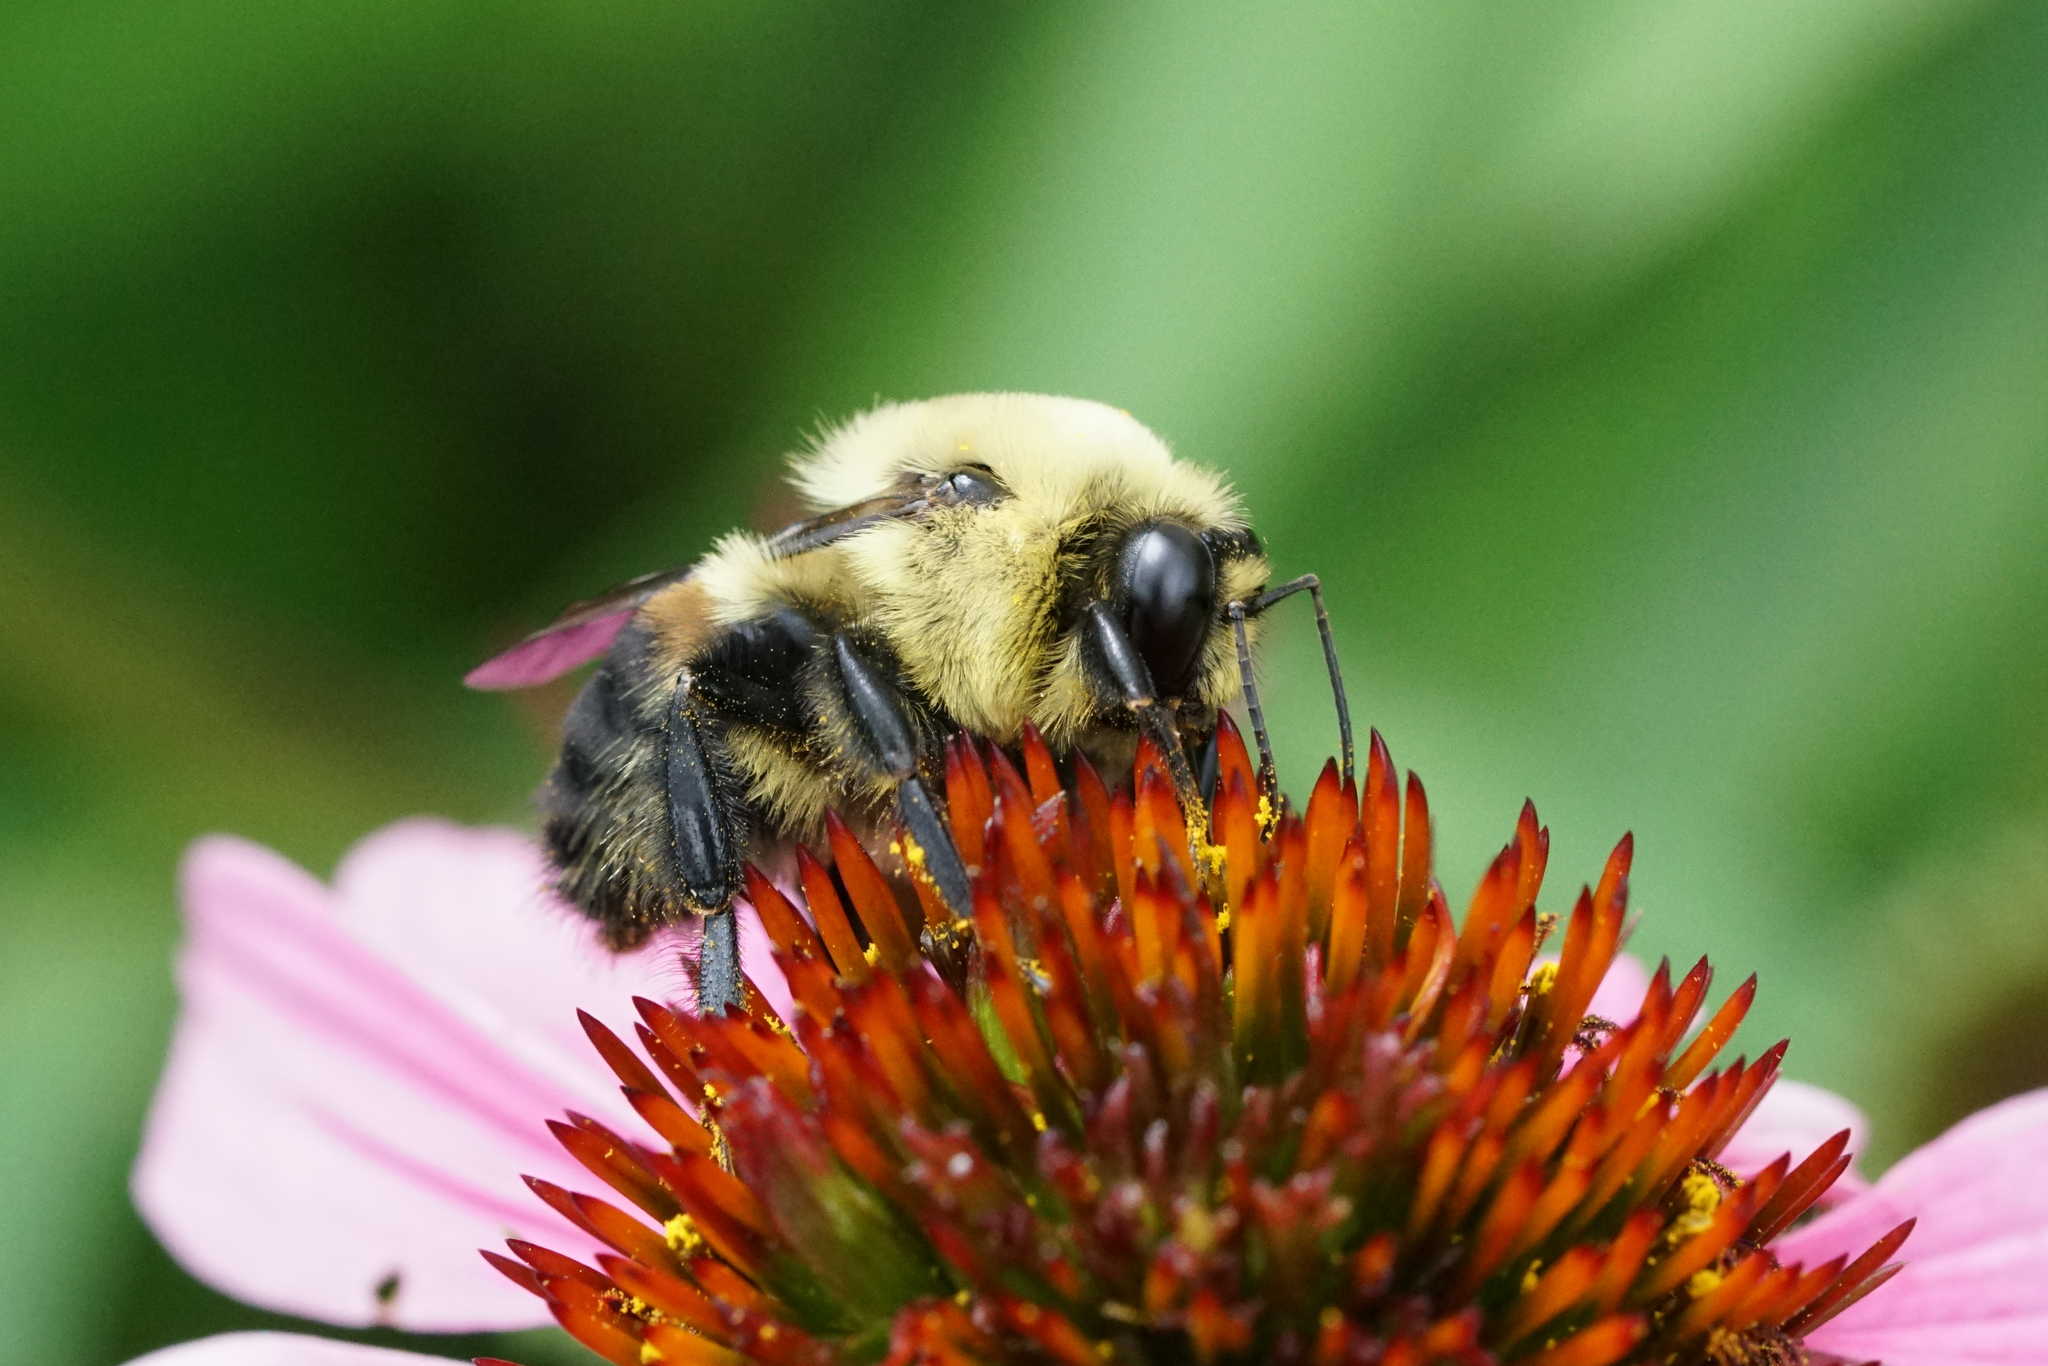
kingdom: Animalia
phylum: Arthropoda
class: Insecta
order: Hymenoptera
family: Apidae
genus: Bombus
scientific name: Bombus griseocollis
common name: Brown-belted bumble bee
